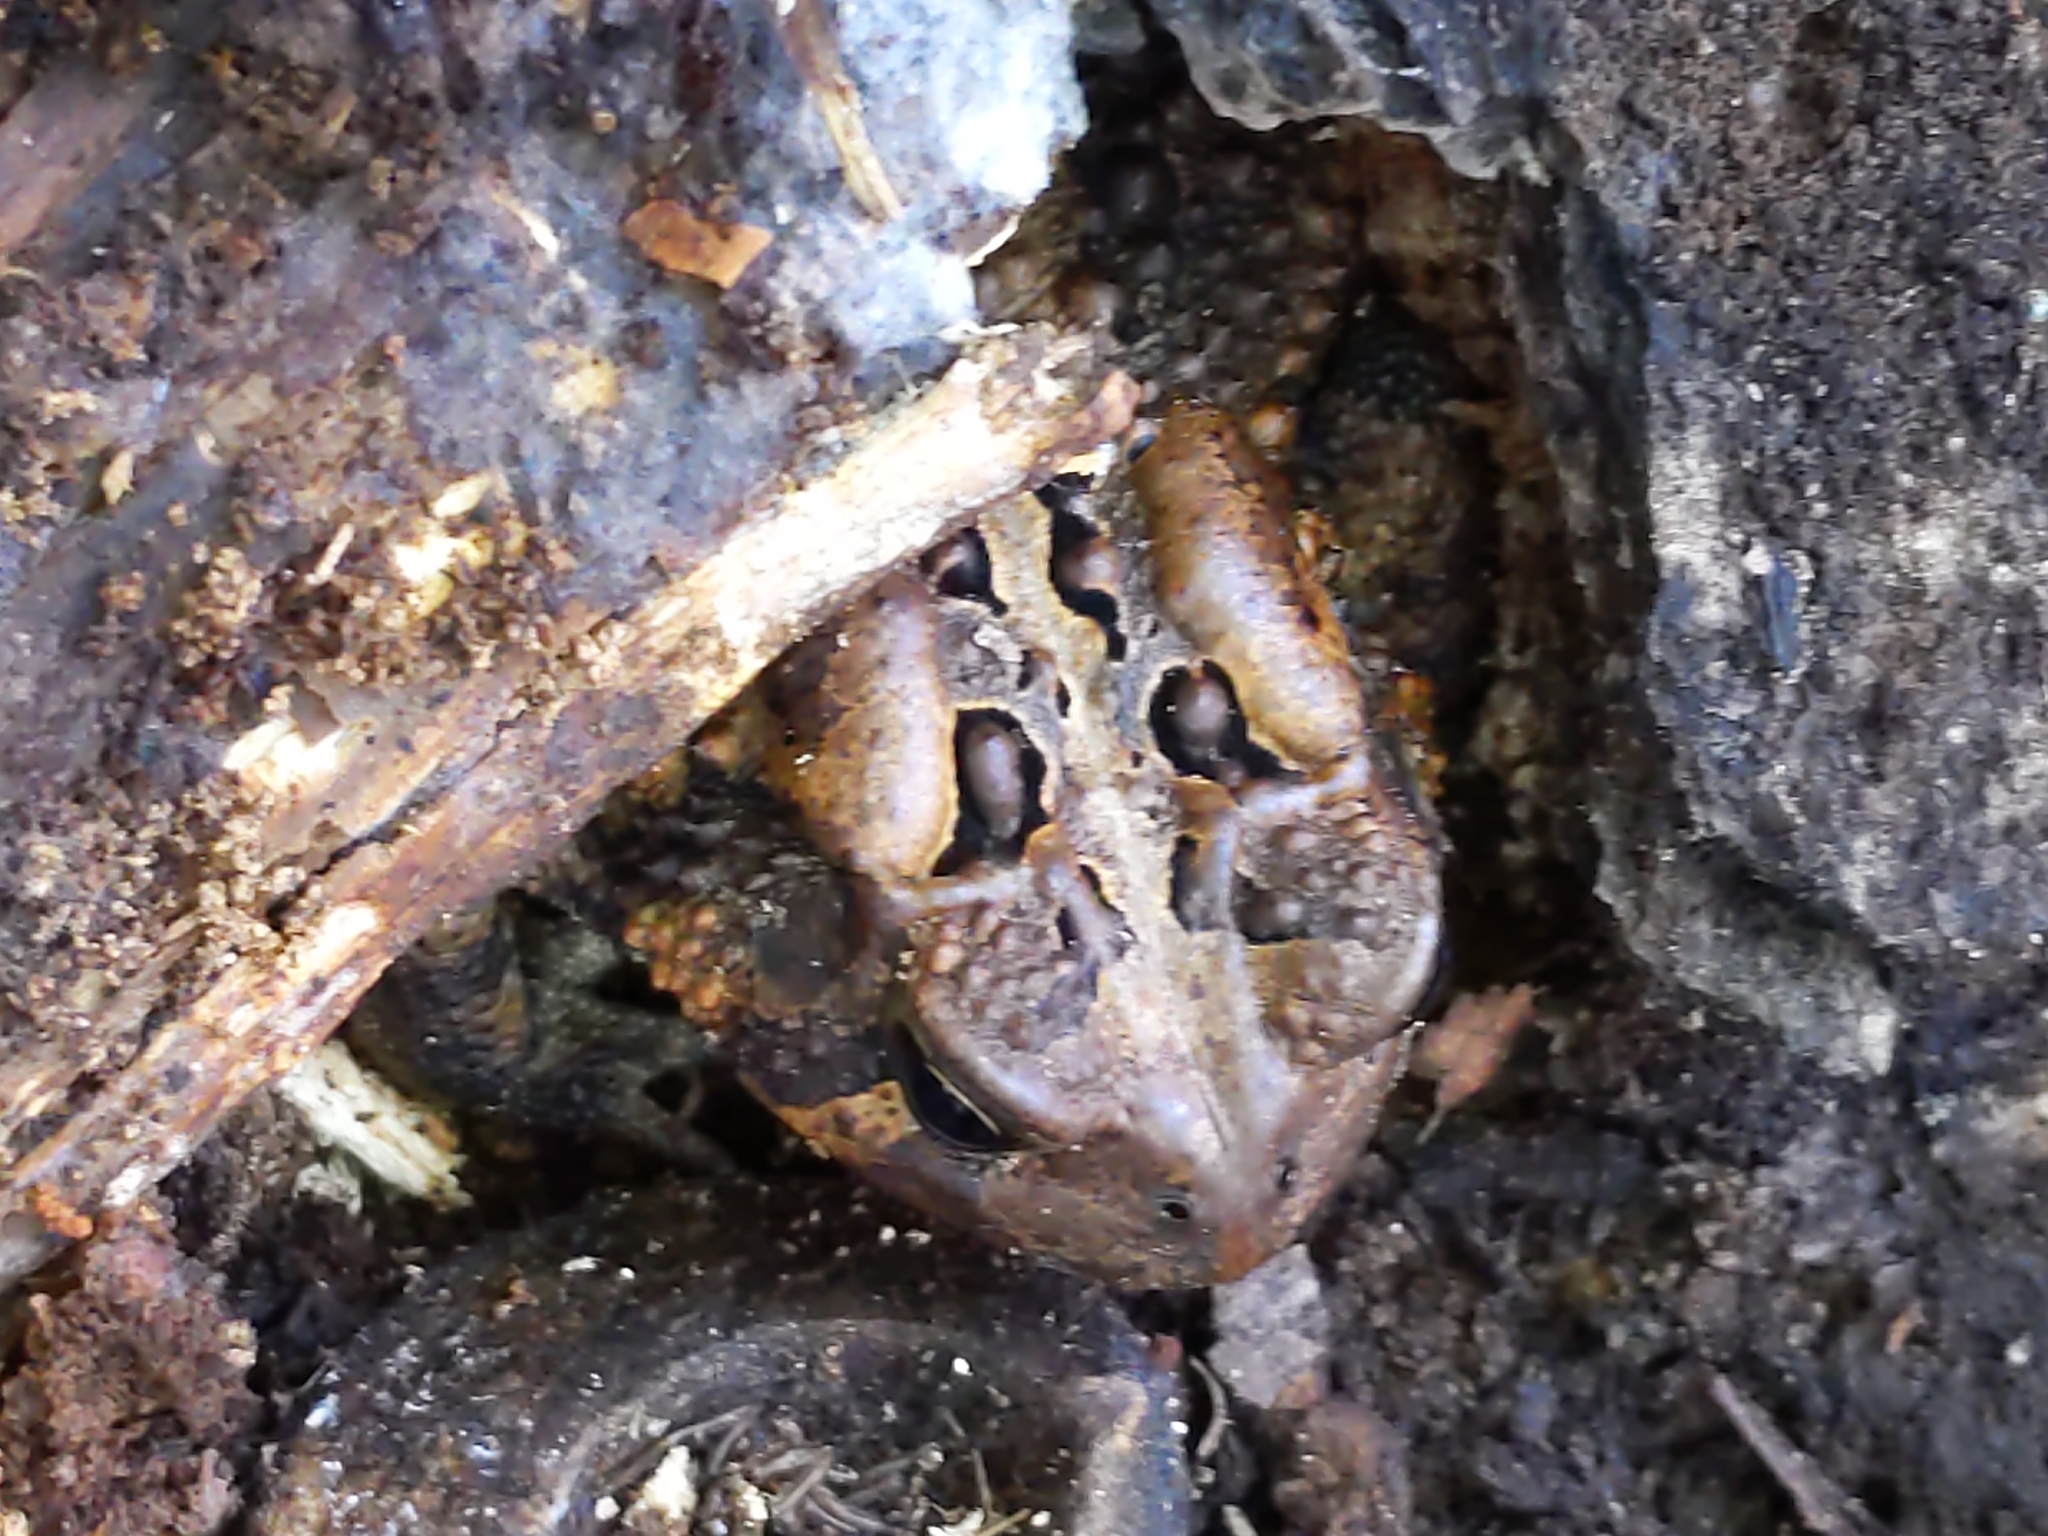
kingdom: Animalia
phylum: Chordata
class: Amphibia
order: Anura
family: Bufonidae
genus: Anaxyrus
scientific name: Anaxyrus americanus
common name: American toad
